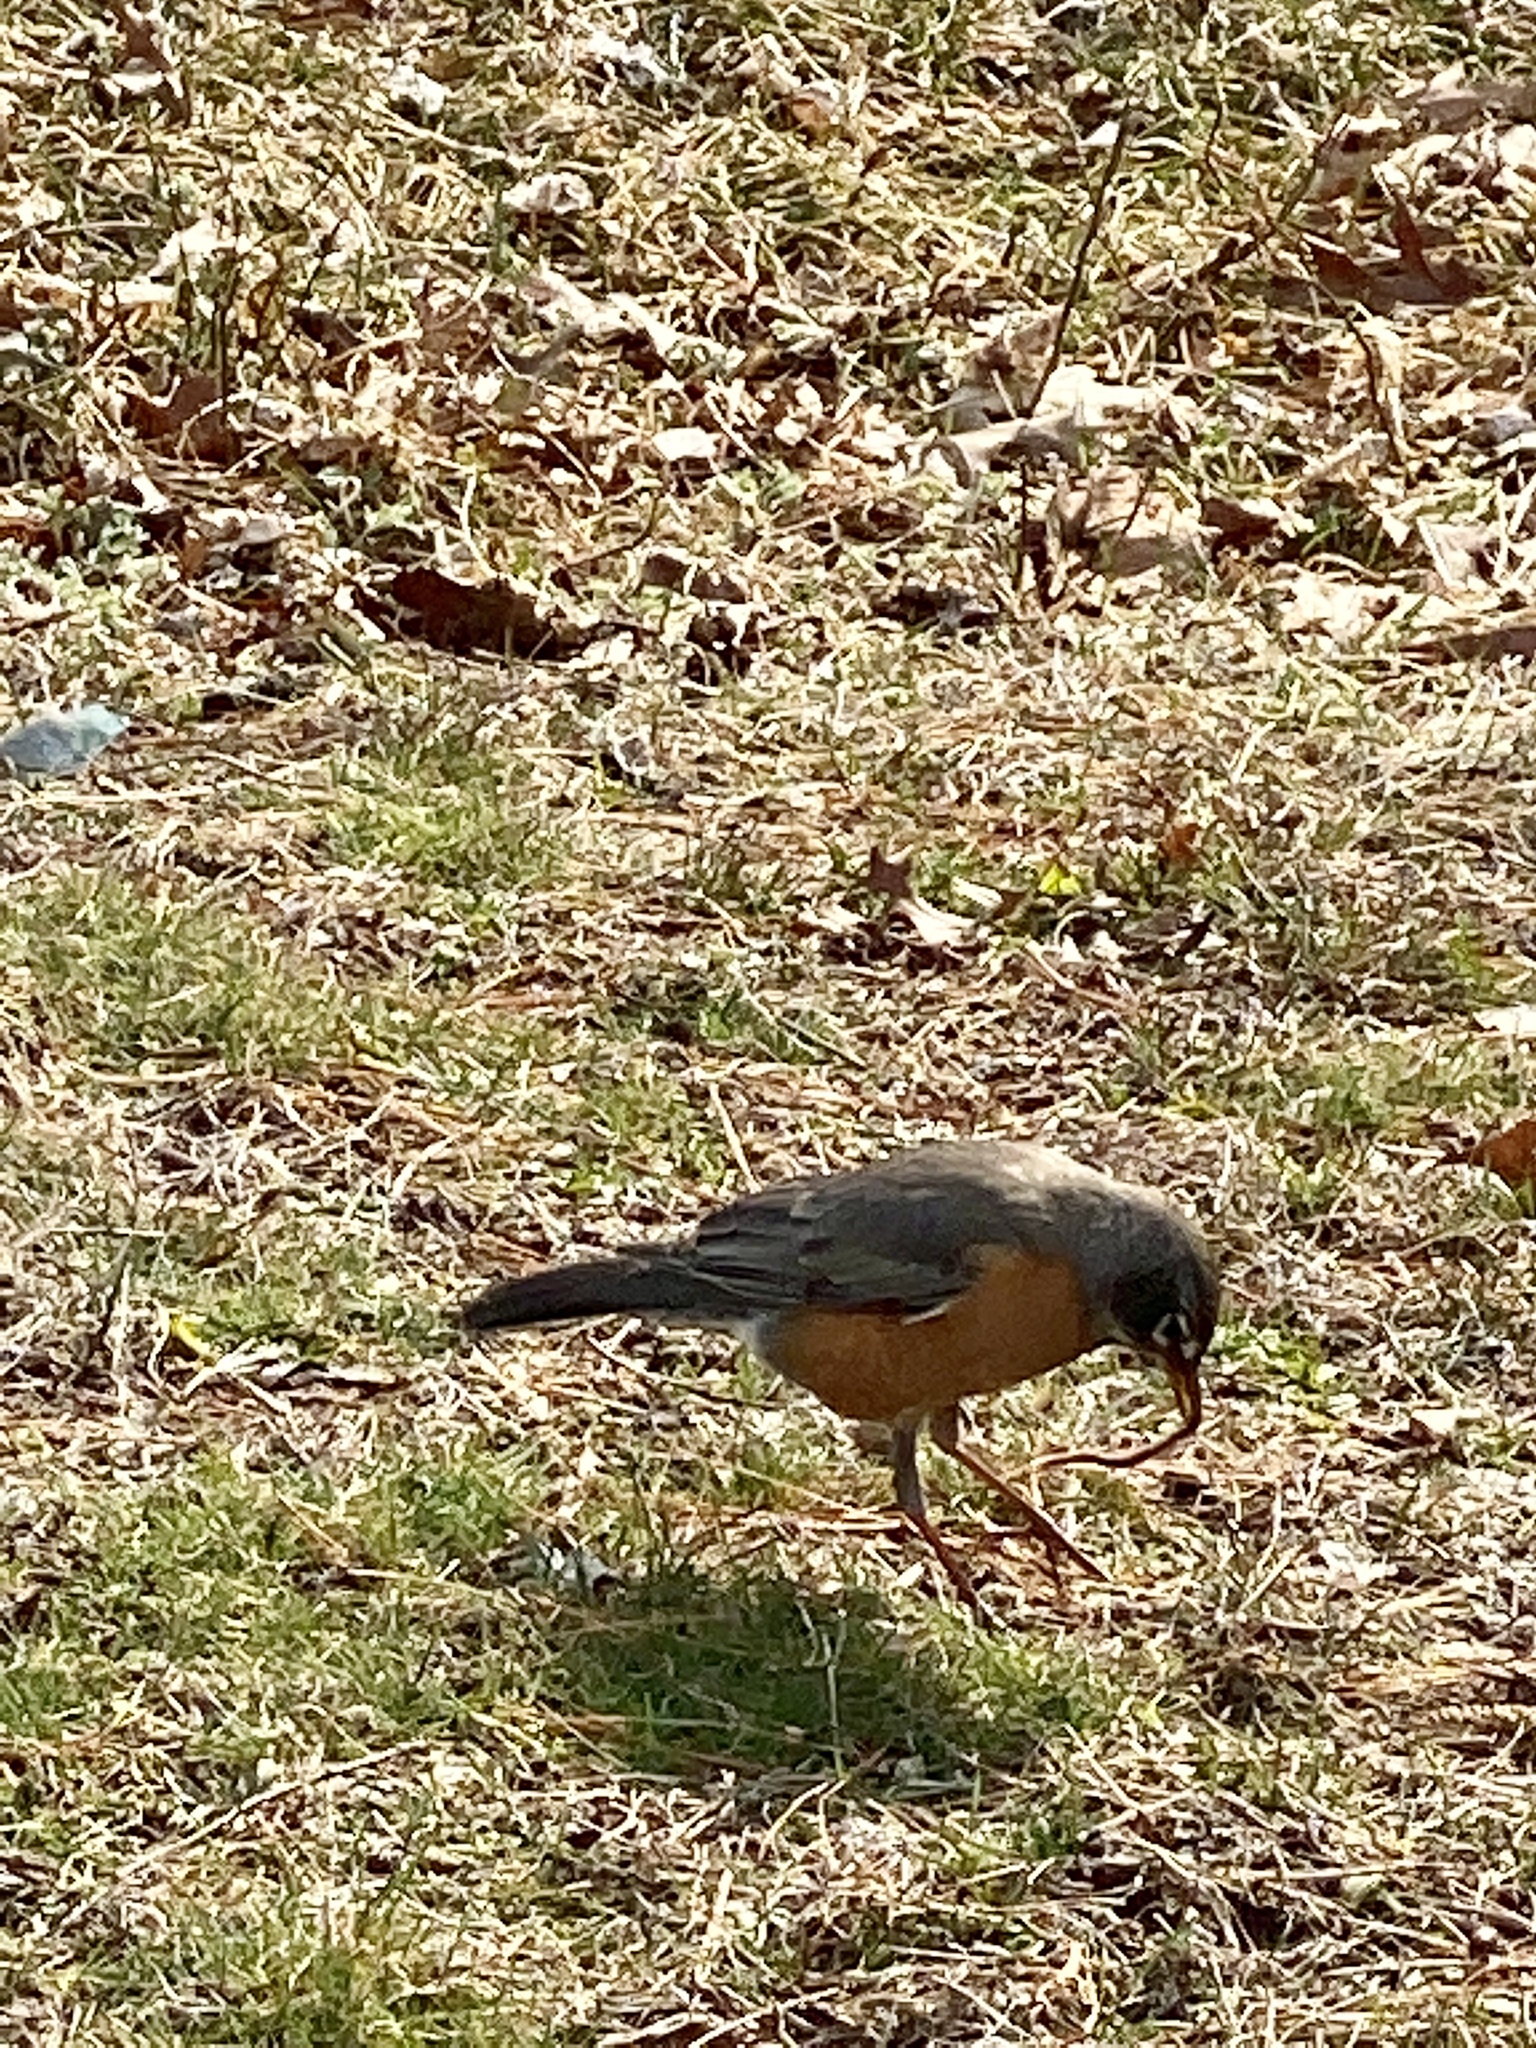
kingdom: Animalia
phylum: Chordata
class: Aves
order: Passeriformes
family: Turdidae
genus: Turdus
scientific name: Turdus migratorius
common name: American robin
